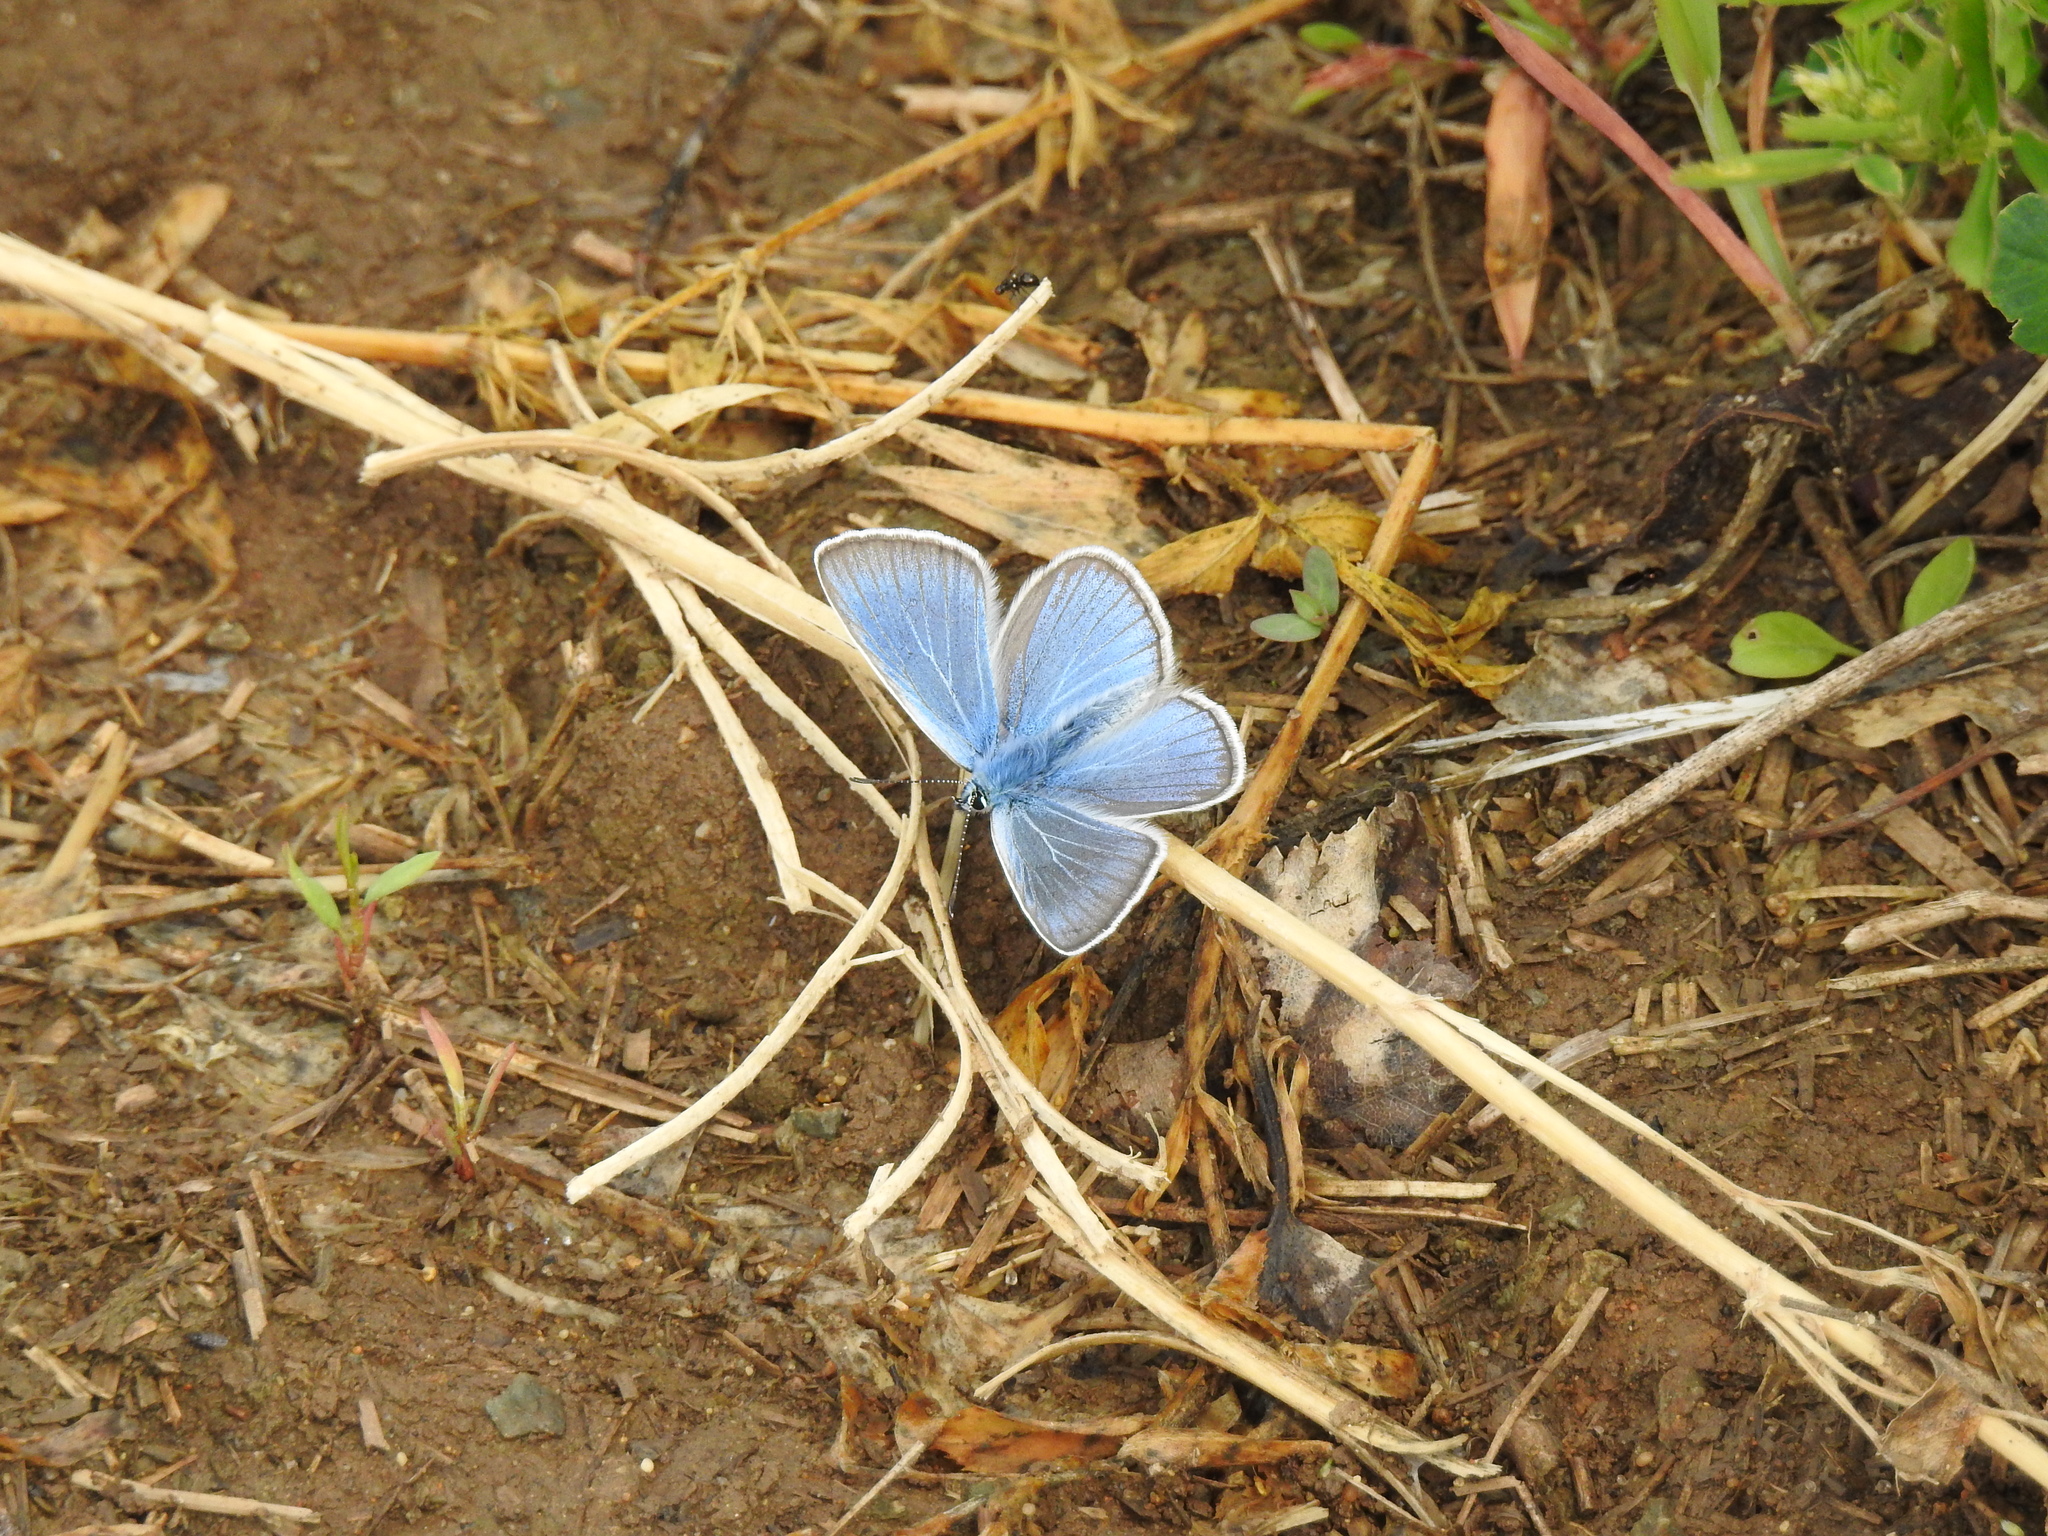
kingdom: Animalia
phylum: Arthropoda
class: Insecta
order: Lepidoptera
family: Lycaenidae
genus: Plebejus
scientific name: Plebejus amanda
